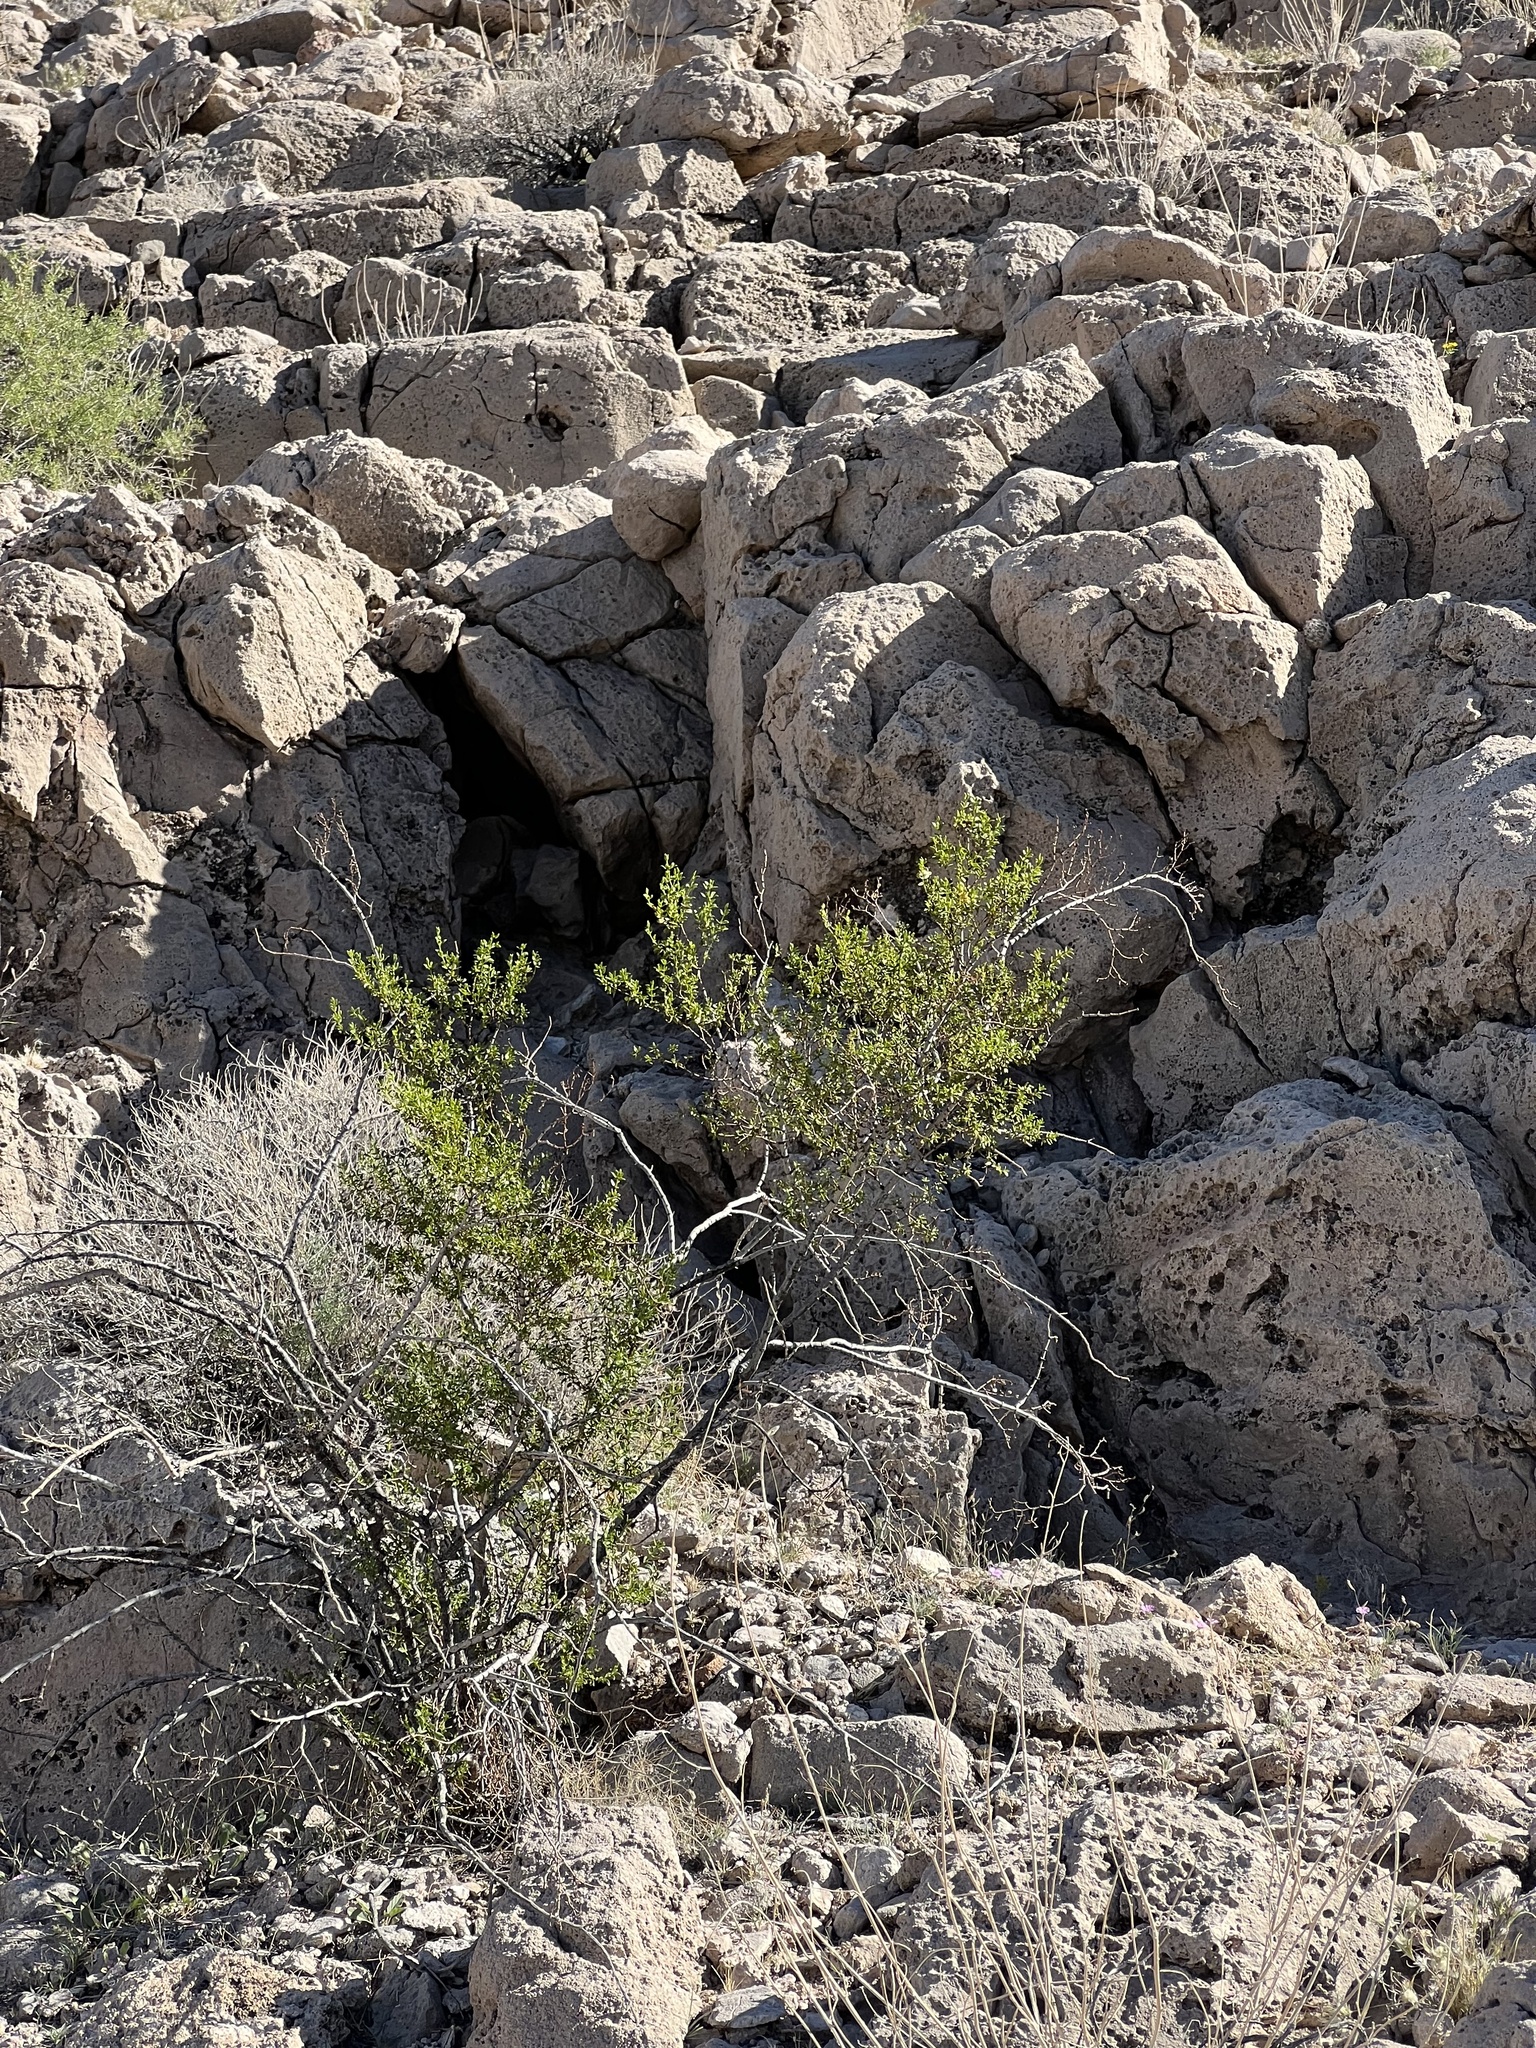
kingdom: Plantae
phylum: Tracheophyta
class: Magnoliopsida
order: Zygophyllales
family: Zygophyllaceae
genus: Larrea
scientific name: Larrea tridentata
